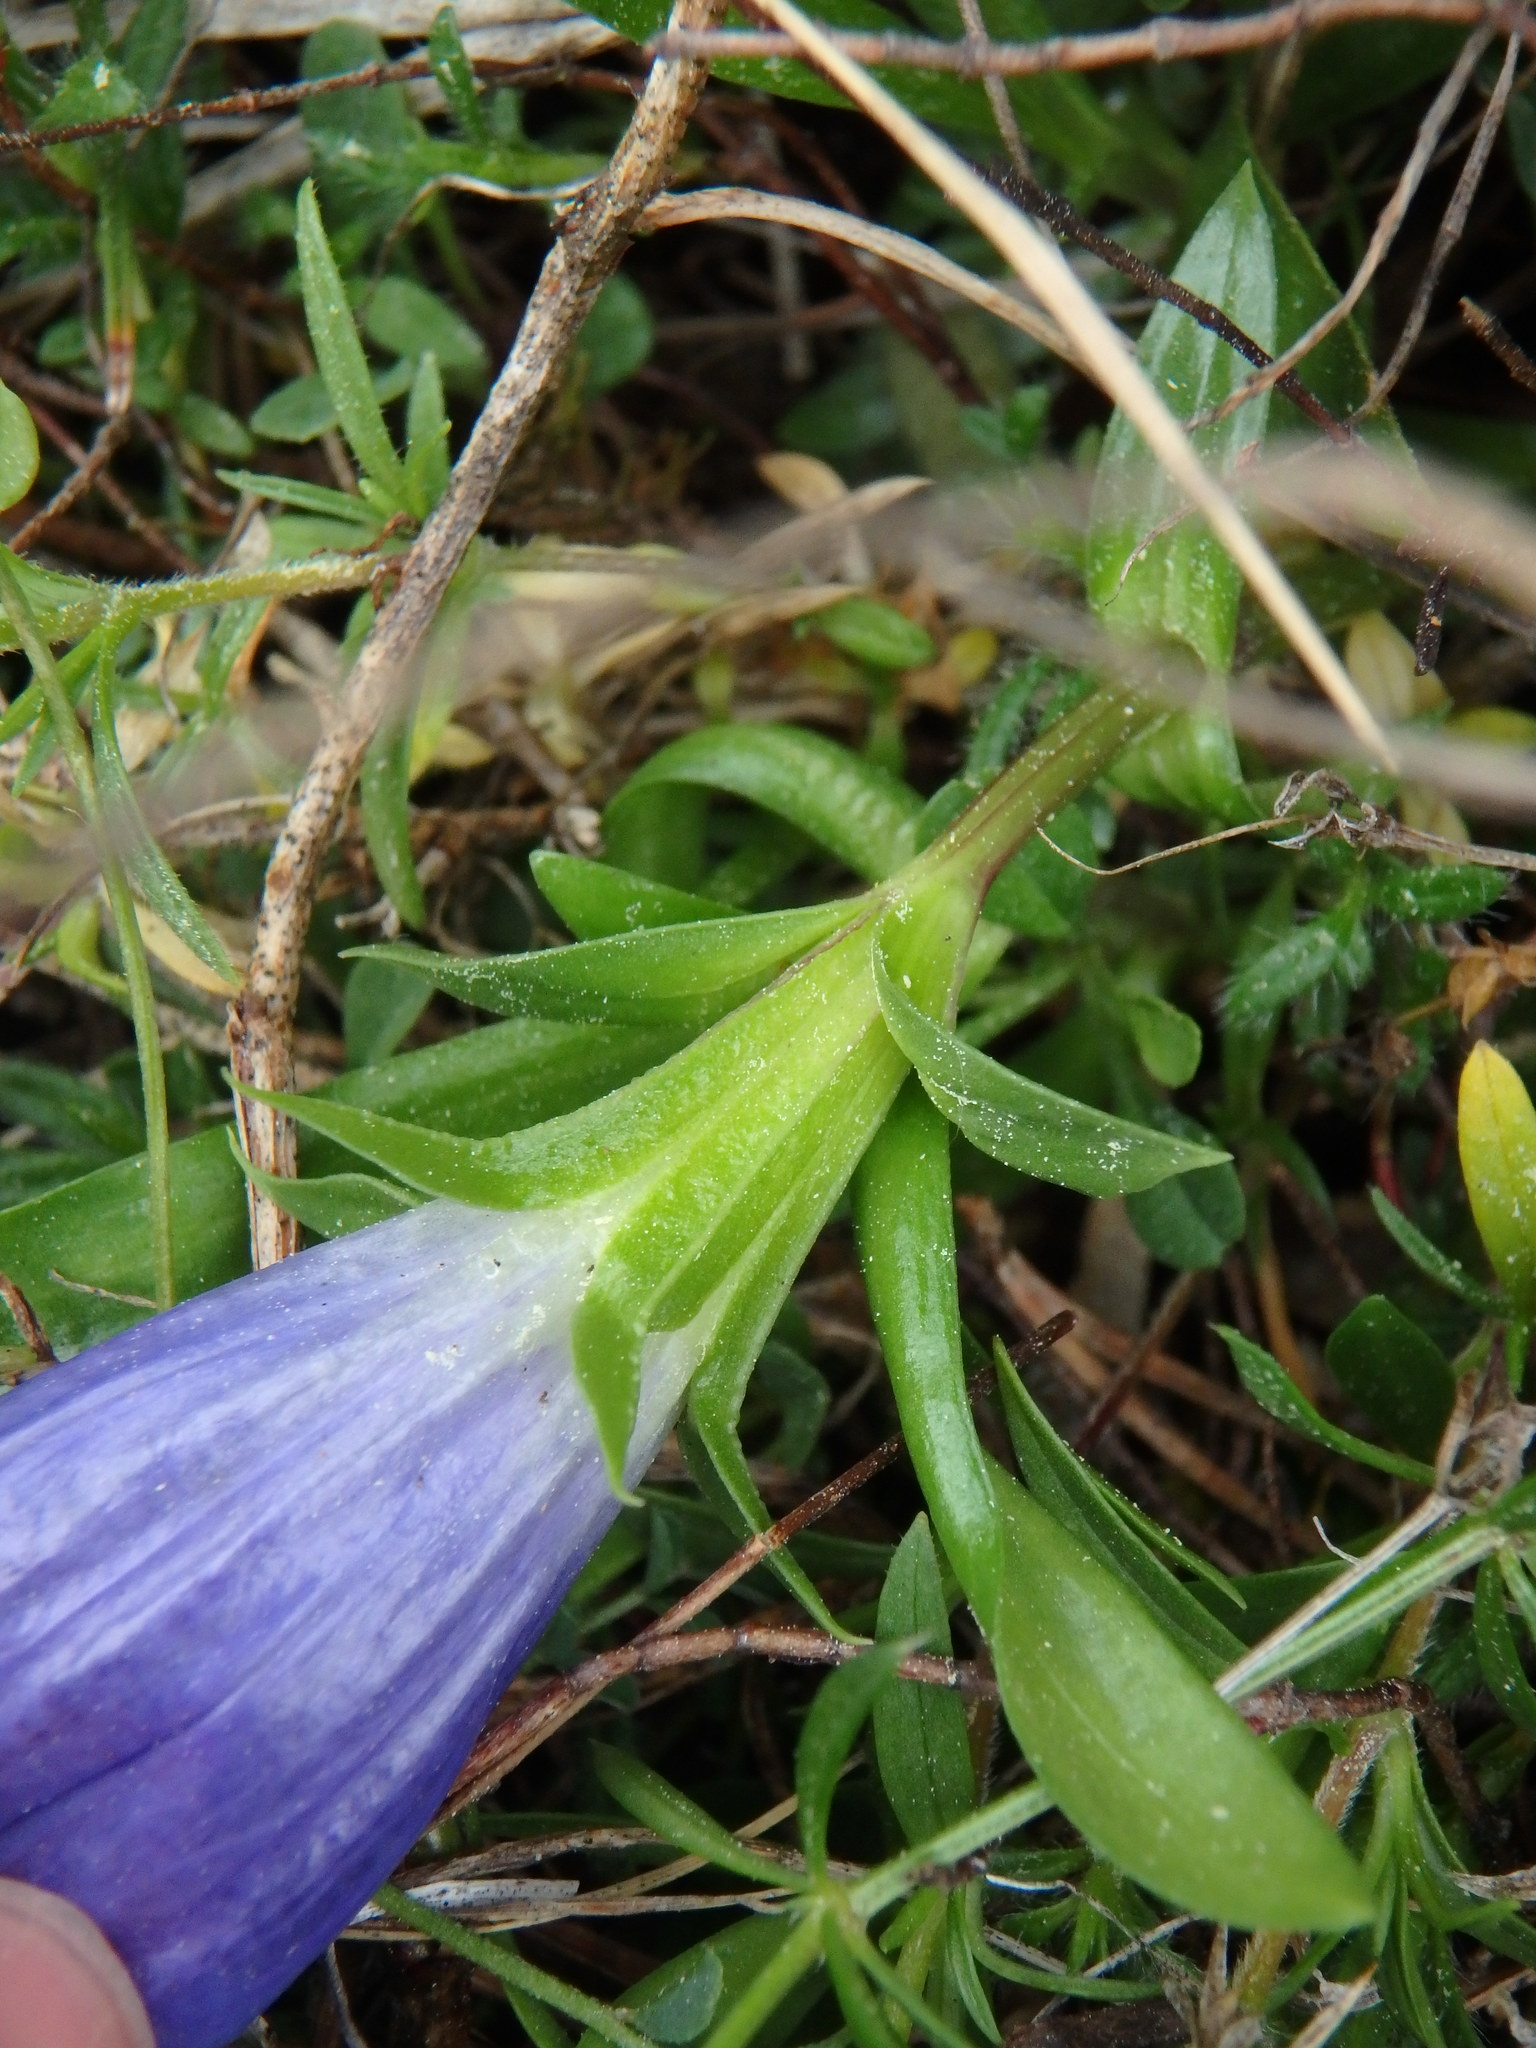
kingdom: Plantae
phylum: Tracheophyta
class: Magnoliopsida
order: Gentianales
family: Gentianaceae
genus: Gentiana
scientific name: Gentiana angustifolia
